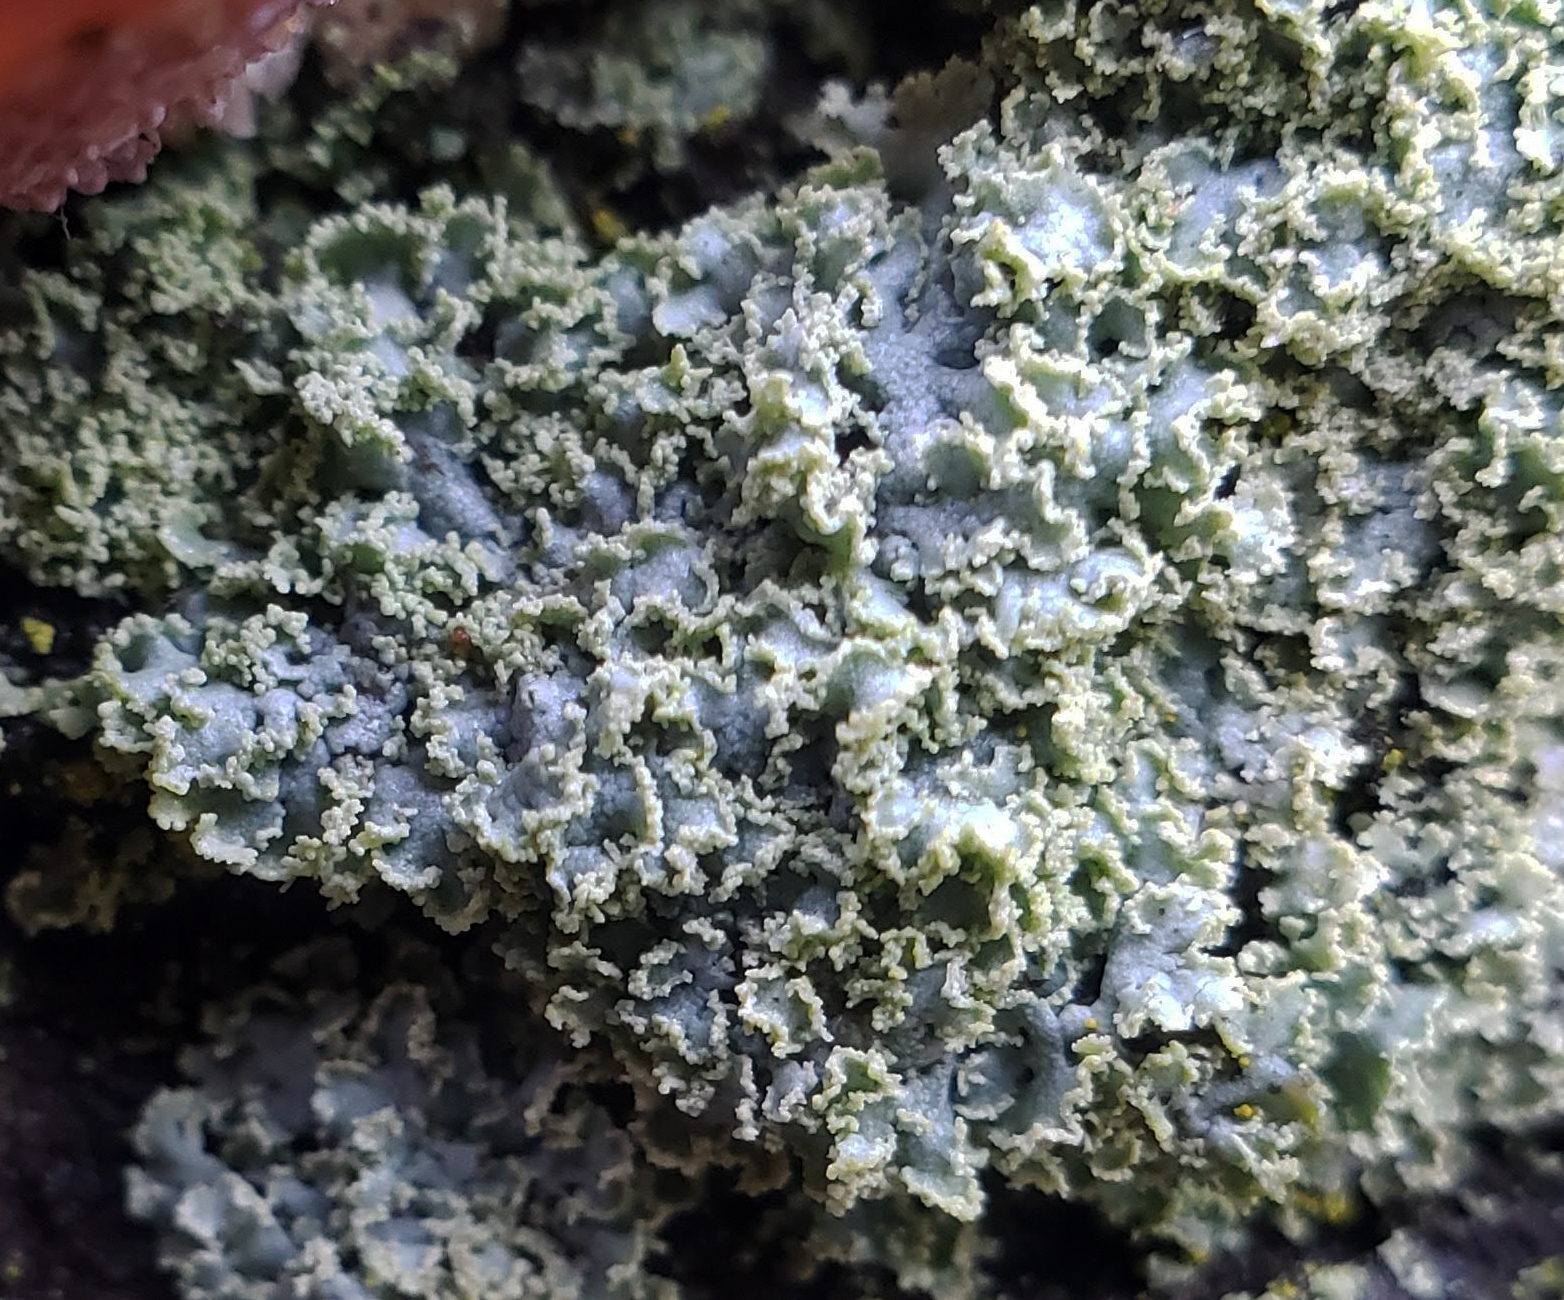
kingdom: Fungi
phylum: Ascomycota
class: Lecanoromycetes
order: Caliciales
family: Physciaceae
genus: Physcia
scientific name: Physcia millegrana
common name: Rosette lichen
